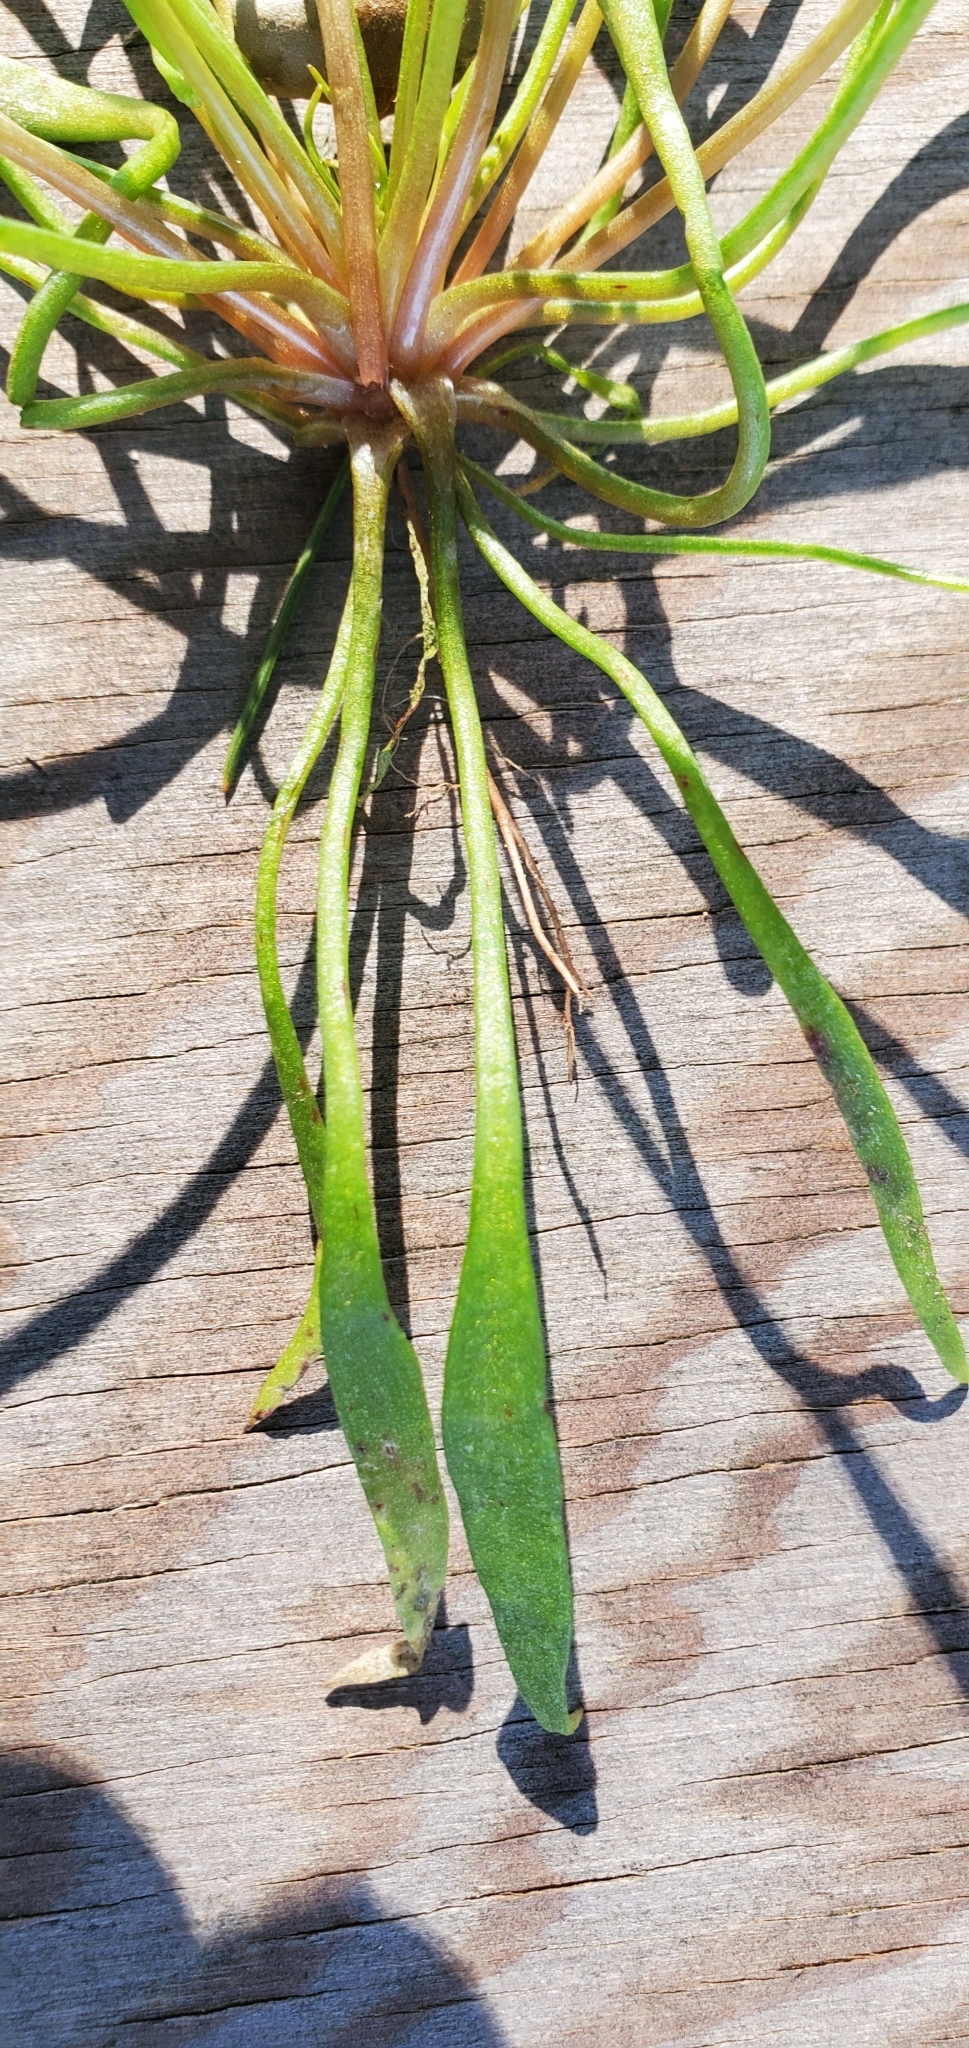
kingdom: Plantae
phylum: Tracheophyta
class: Magnoliopsida
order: Caryophyllales
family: Montiaceae
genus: Claytonia
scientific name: Claytonia parviflora
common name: Indian-lettuce
